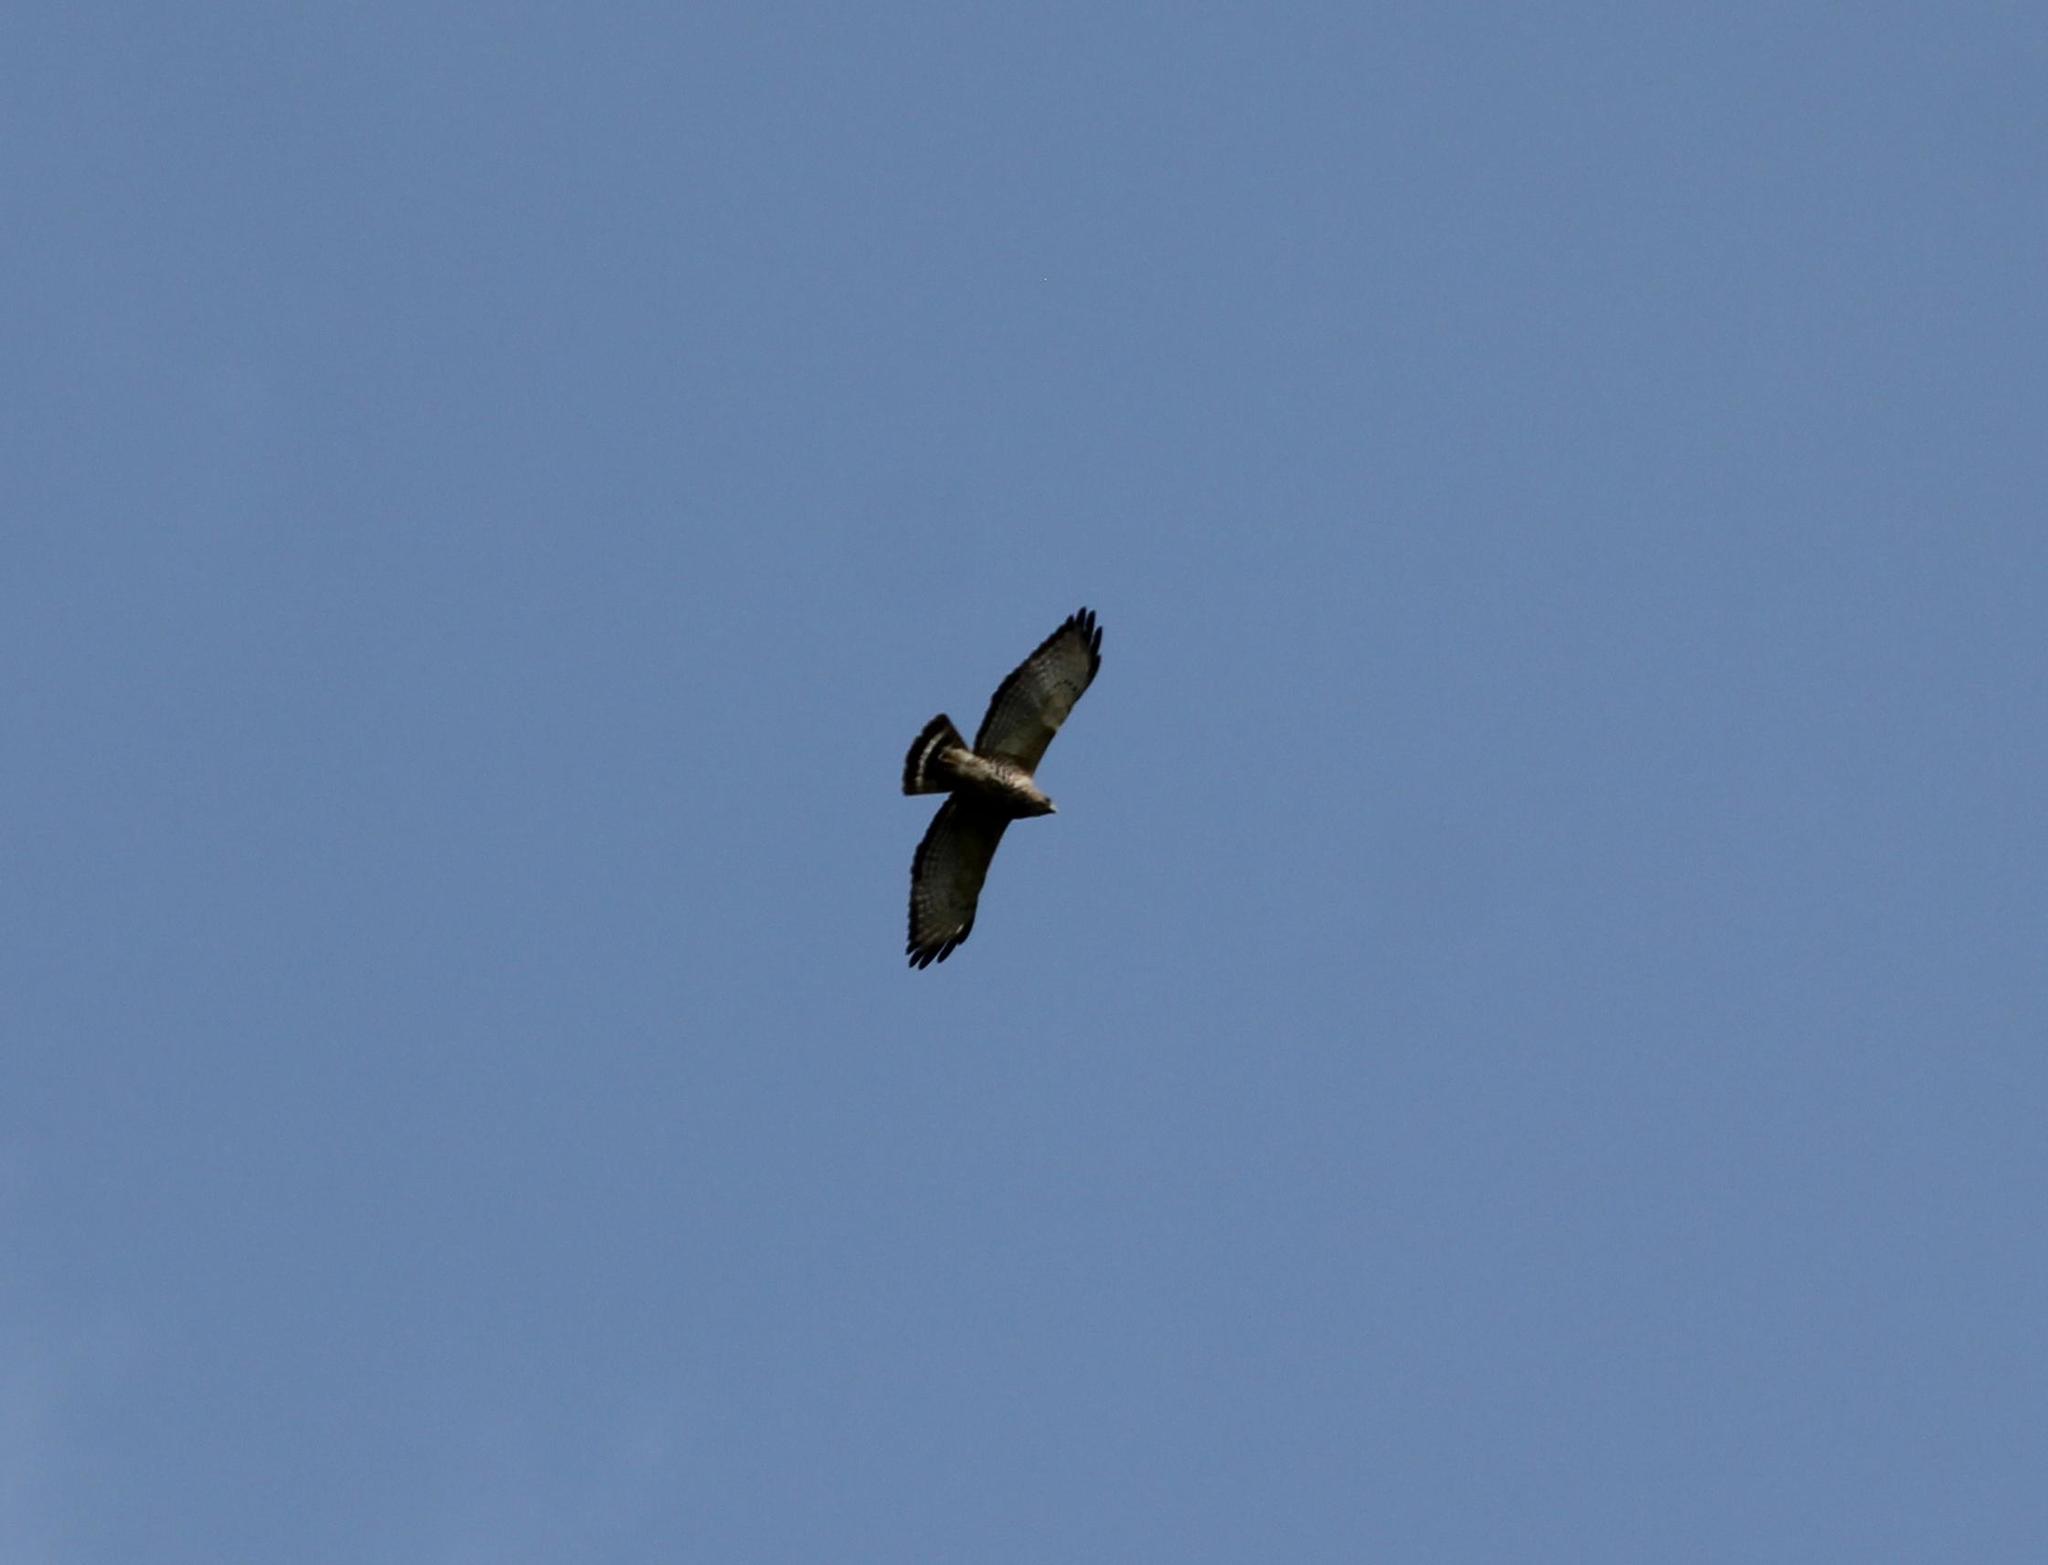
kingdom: Animalia
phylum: Chordata
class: Aves
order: Accipitriformes
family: Accipitridae
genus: Buteo
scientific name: Buteo platypterus
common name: Broad-winged hawk
